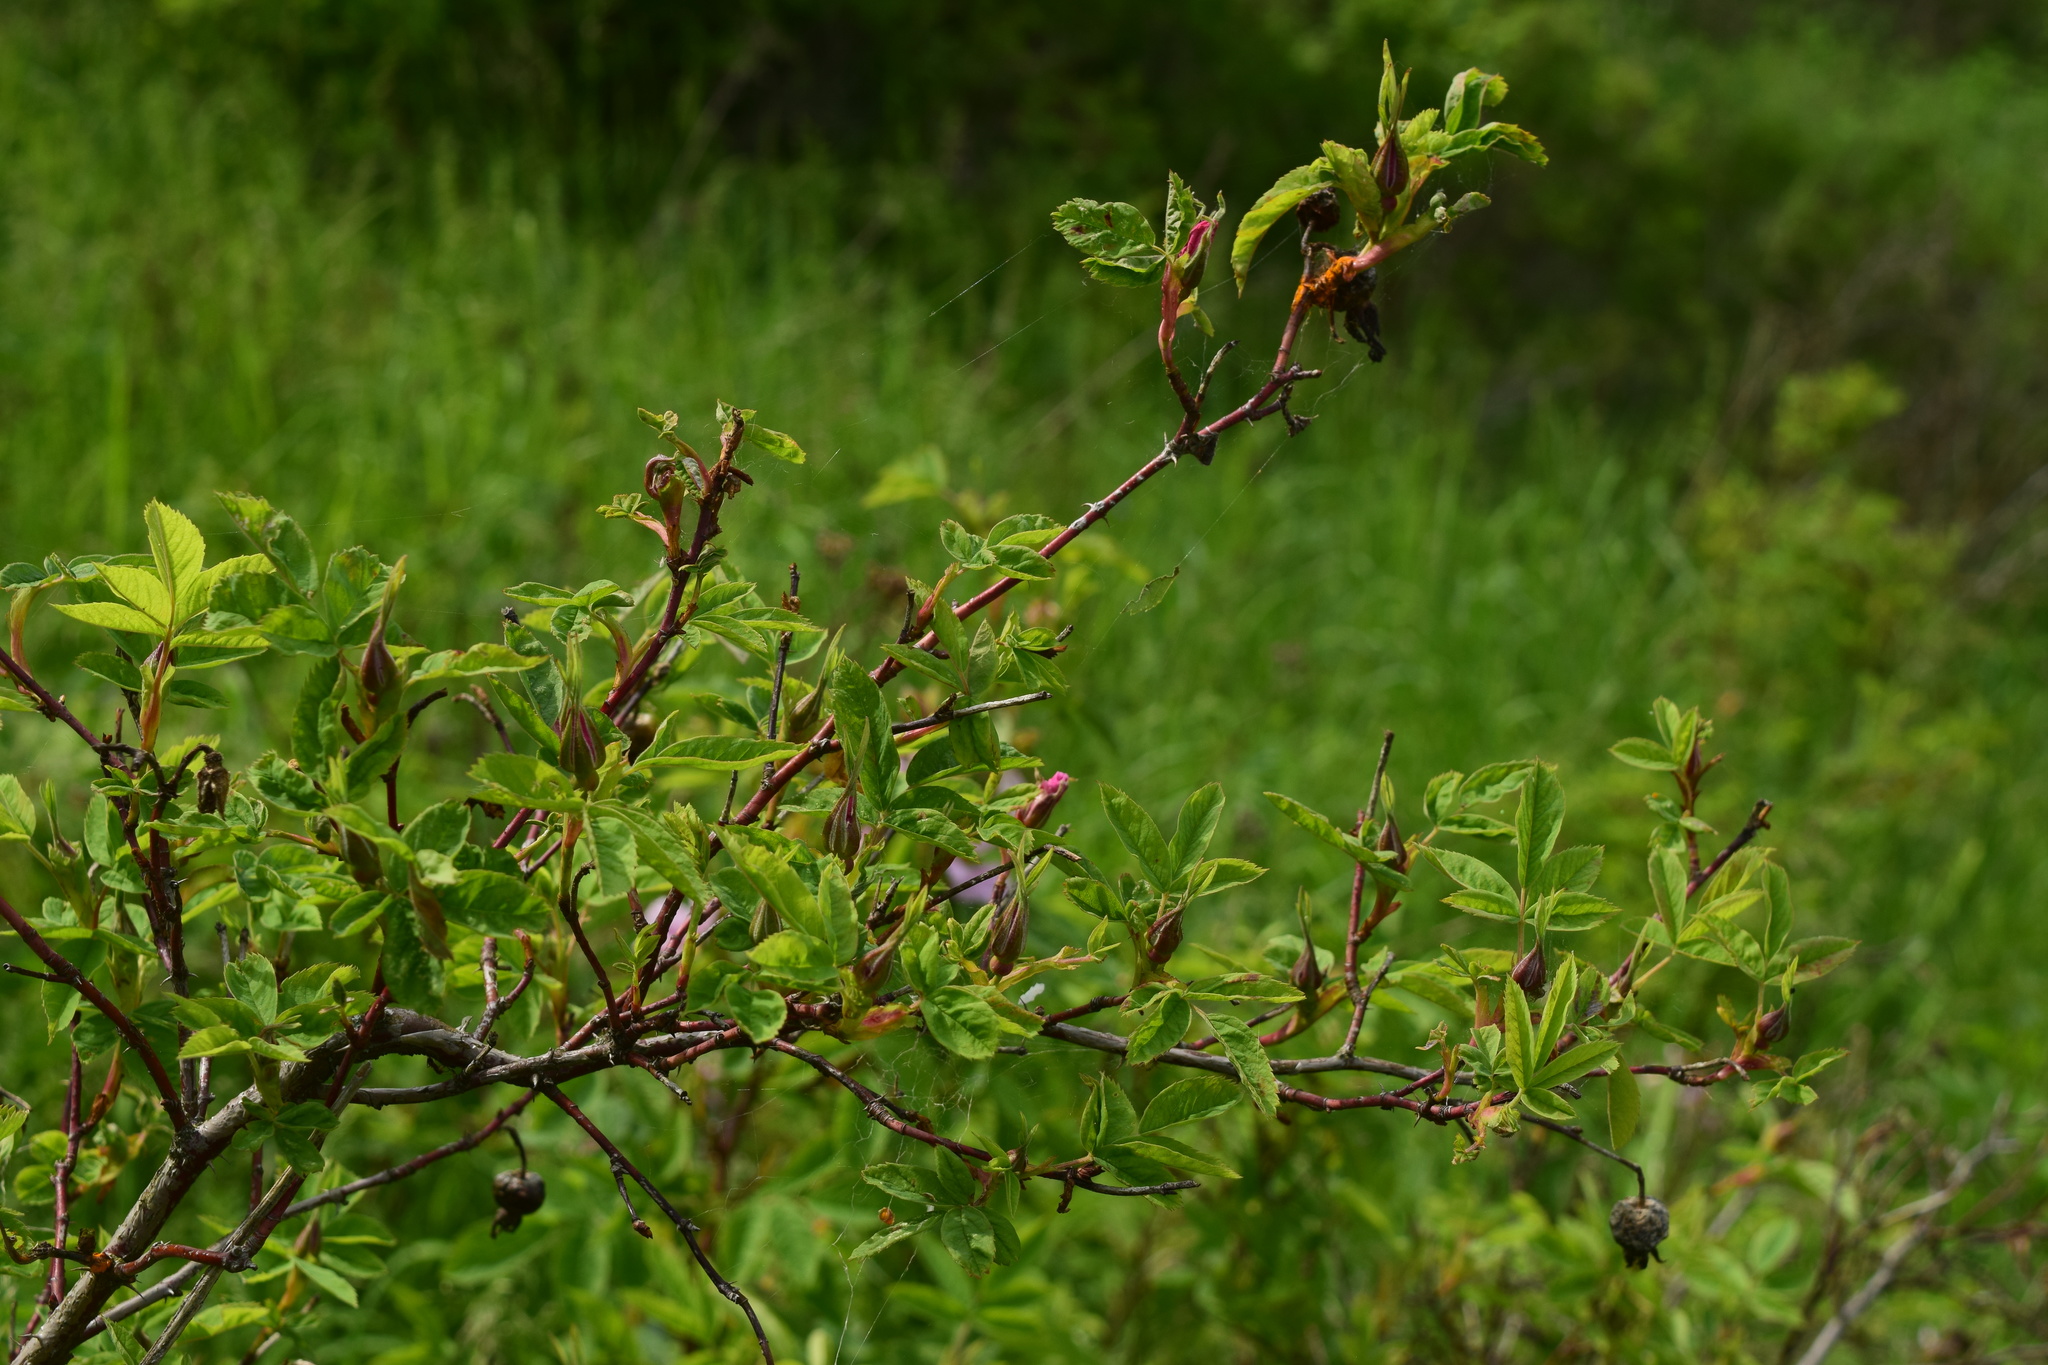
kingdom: Plantae
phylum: Tracheophyta
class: Magnoliopsida
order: Rosales
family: Rosaceae
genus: Rosa
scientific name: Rosa
